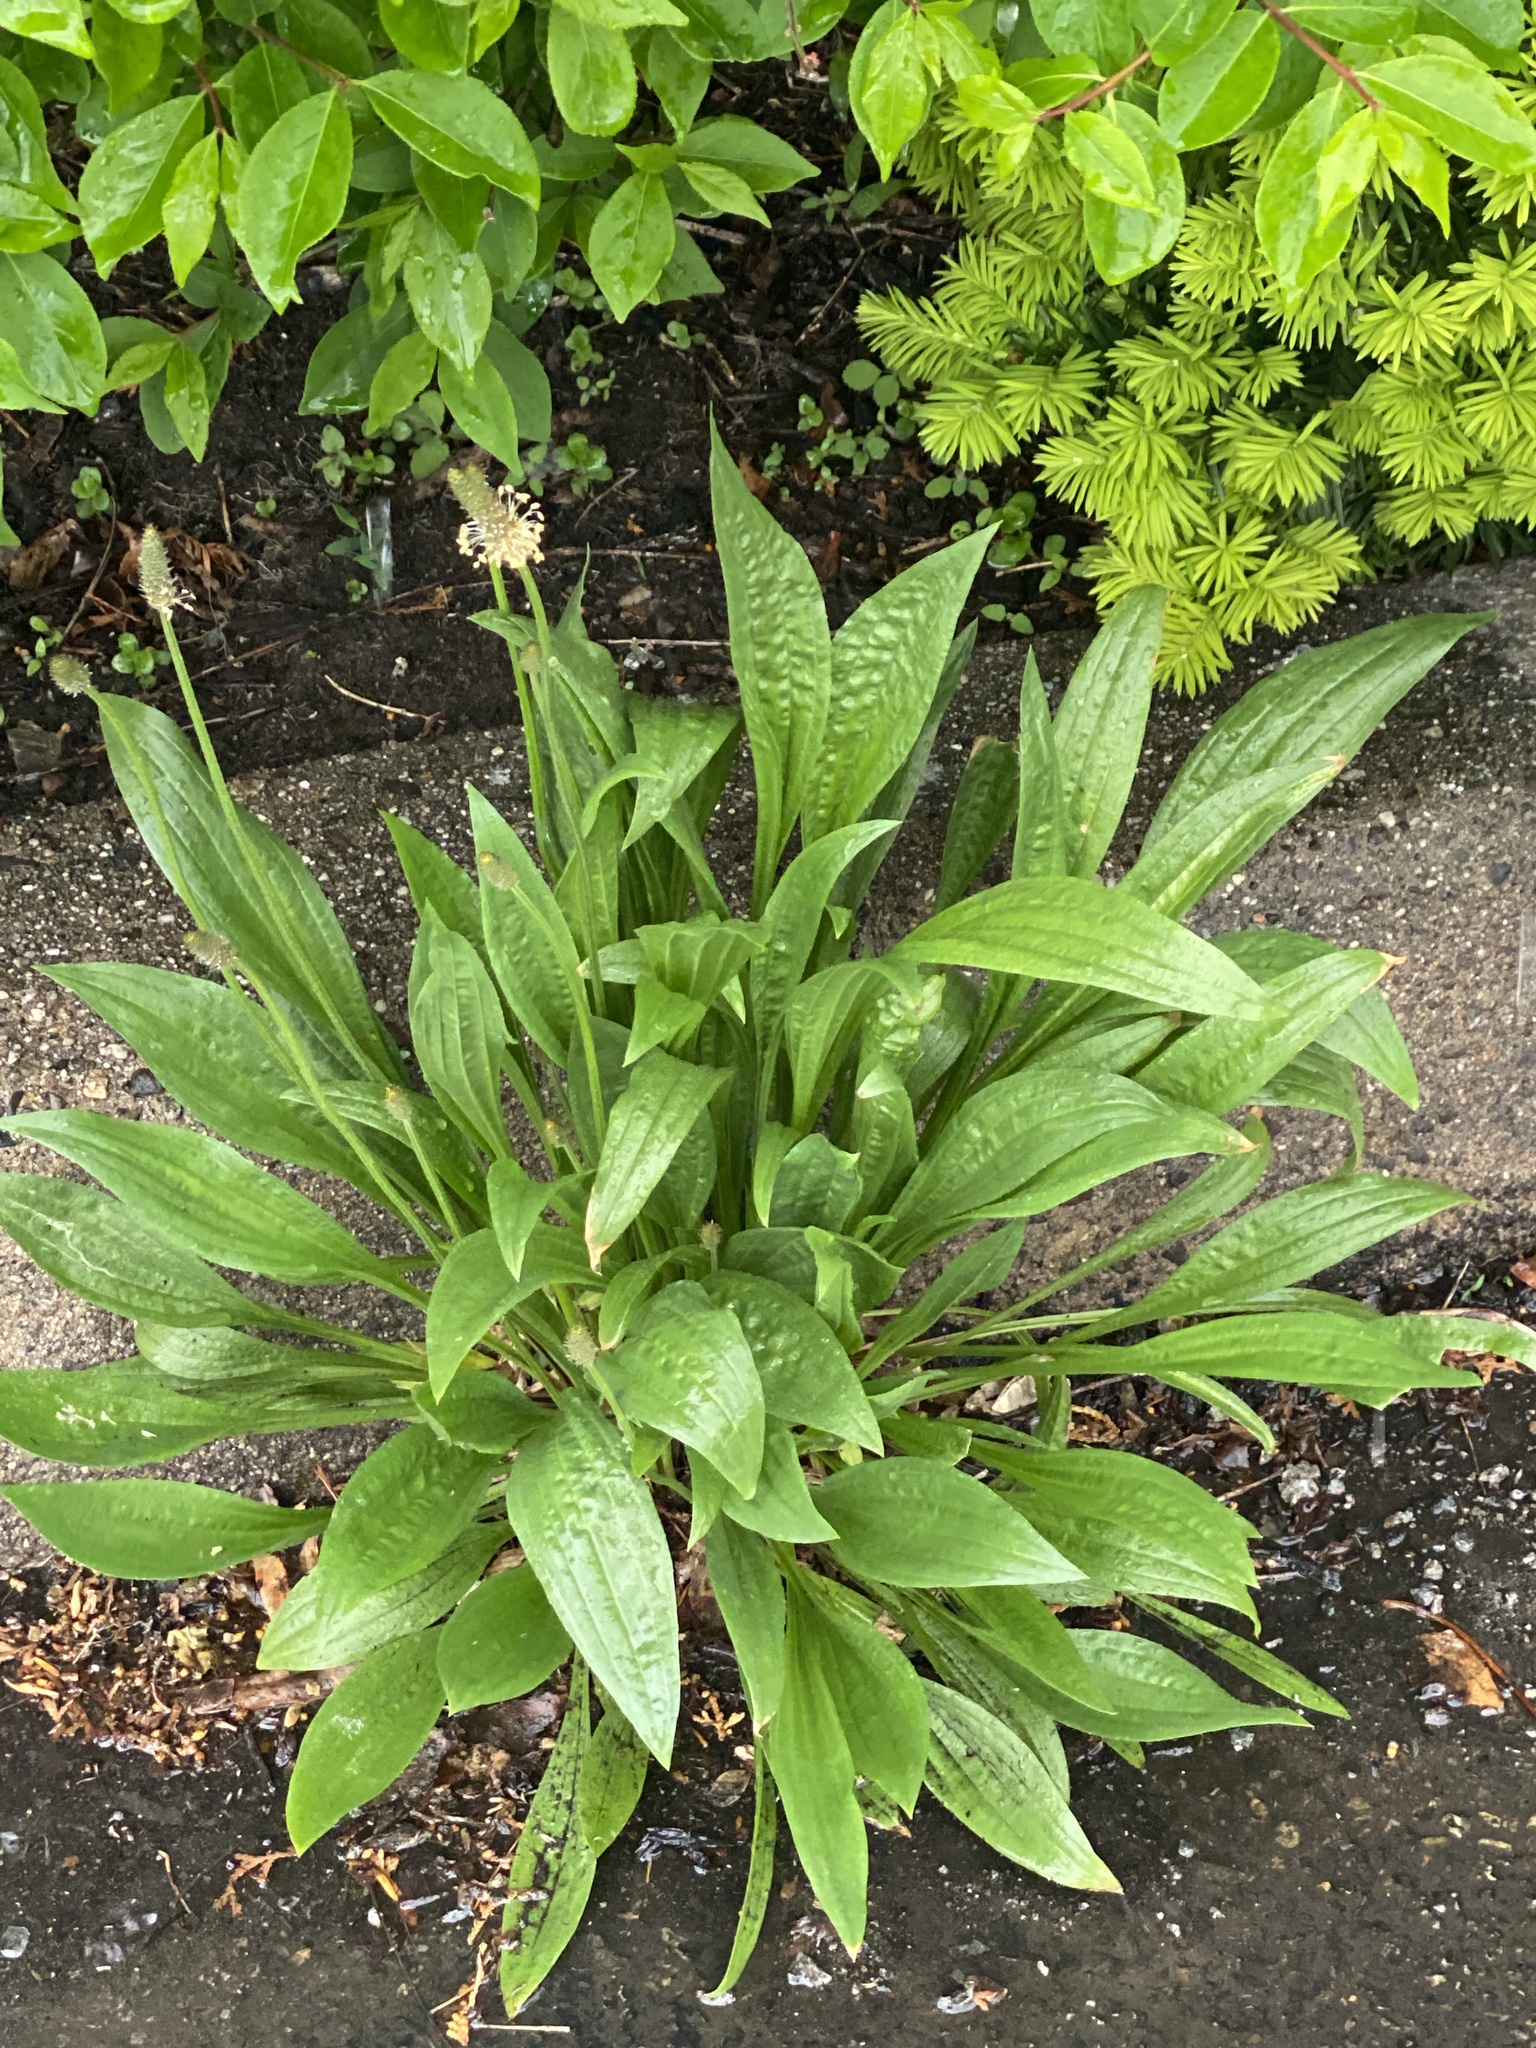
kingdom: Plantae
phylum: Tracheophyta
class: Magnoliopsida
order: Lamiales
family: Plantaginaceae
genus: Plantago
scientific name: Plantago lanceolata
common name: Ribwort plantain
